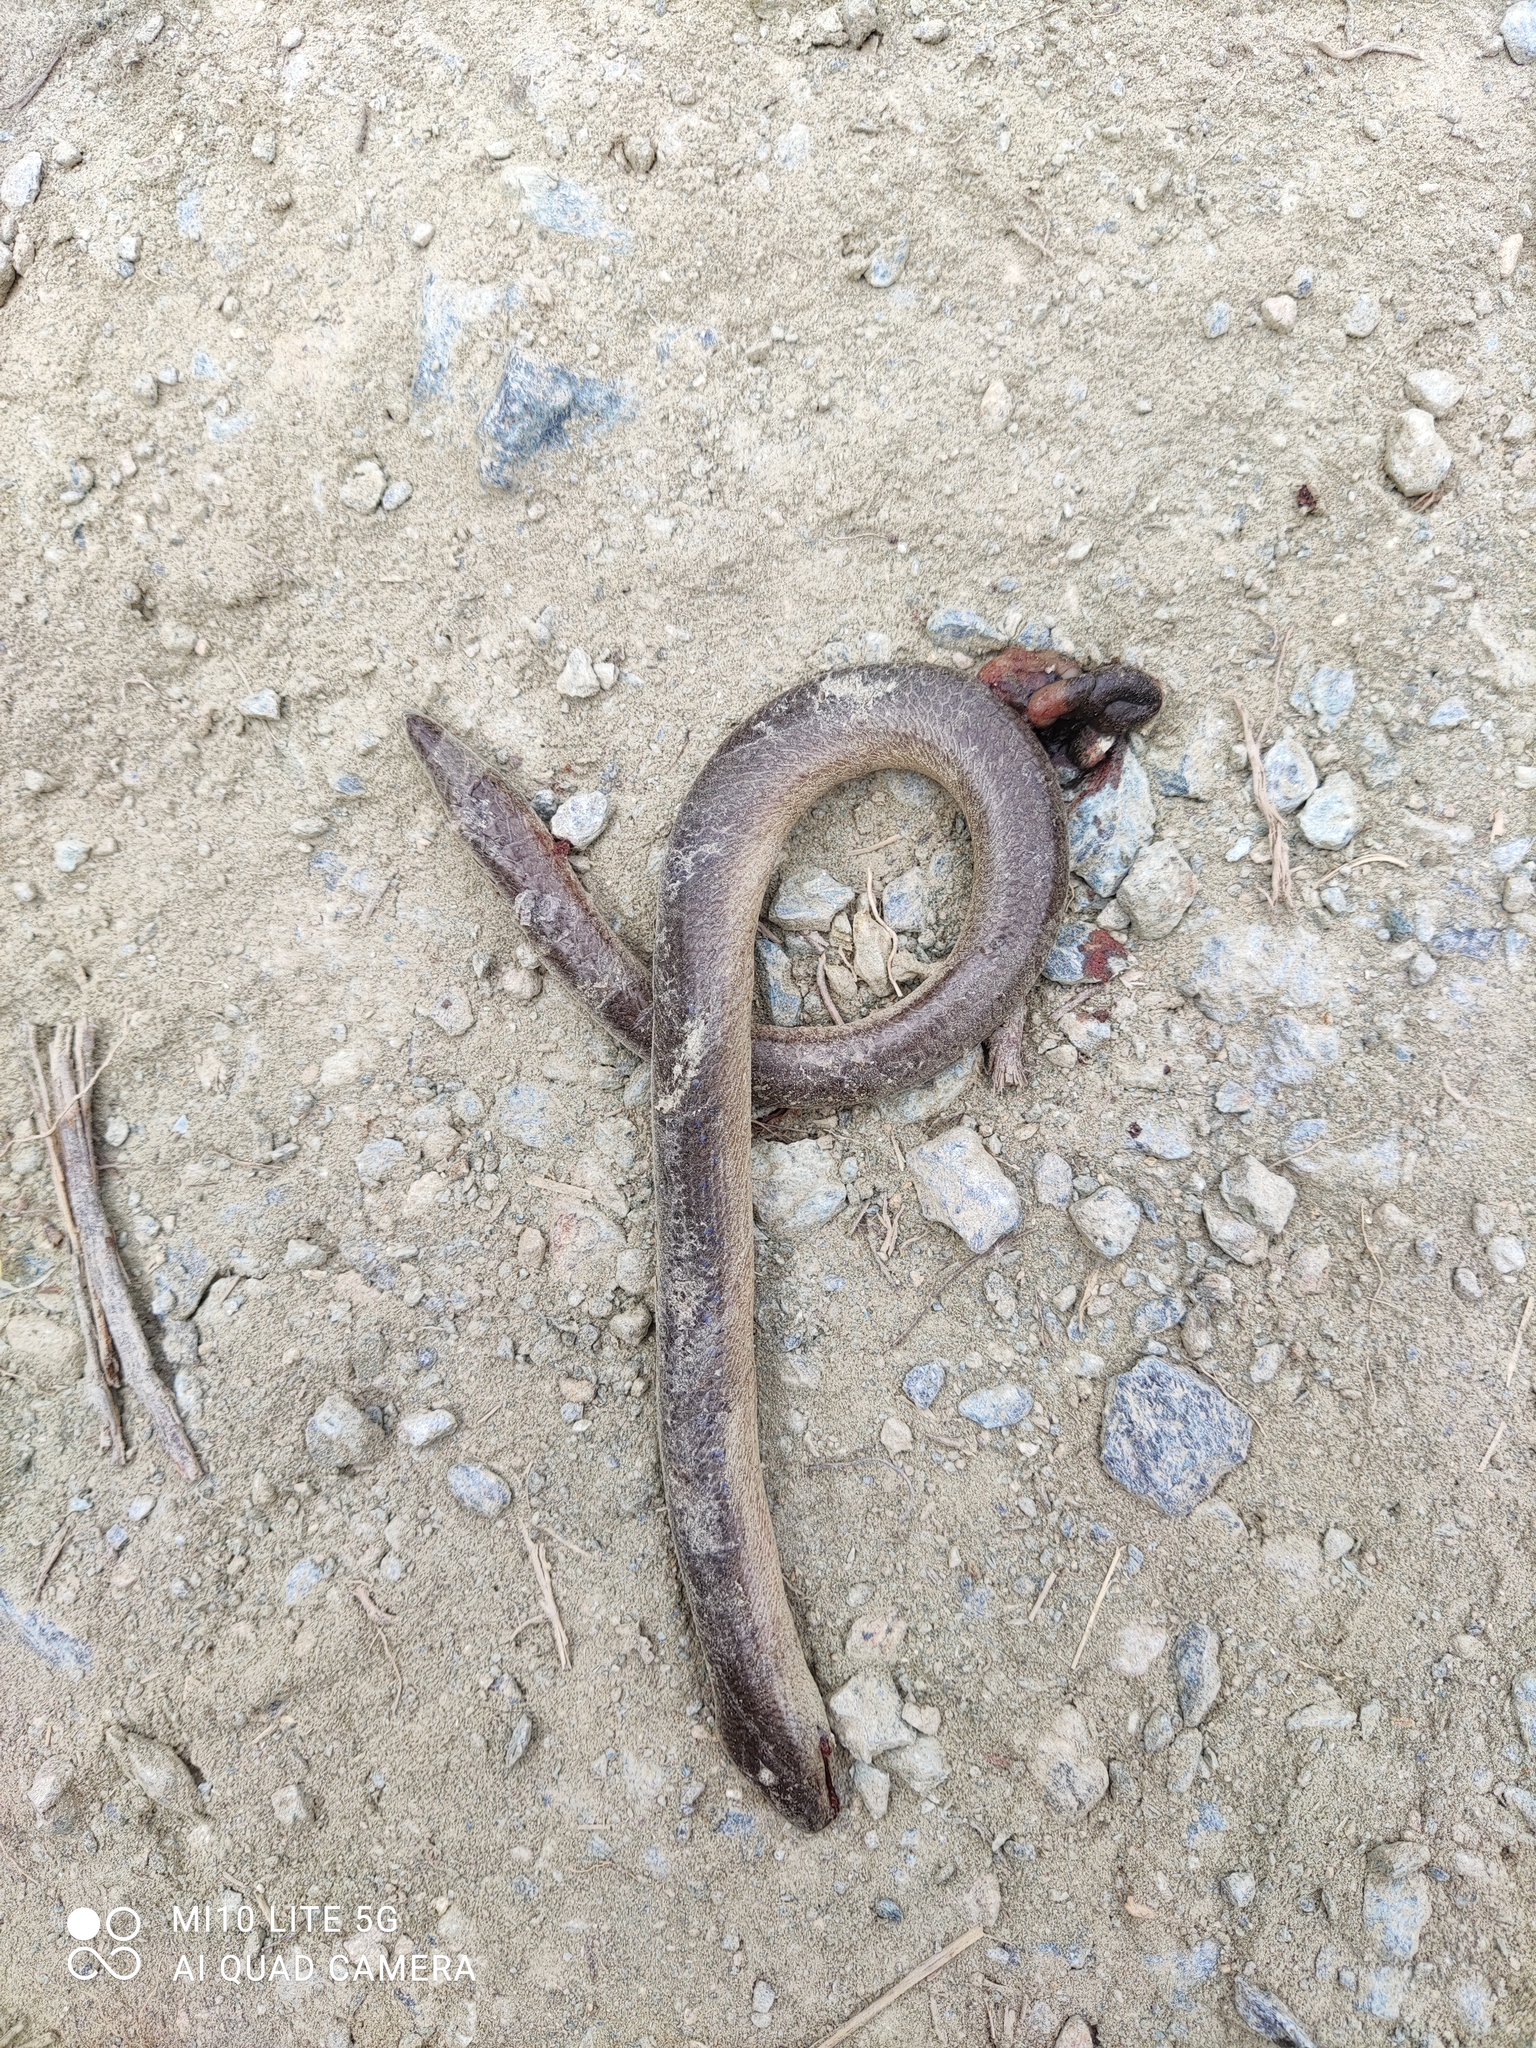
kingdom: Animalia
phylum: Chordata
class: Squamata
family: Anguidae
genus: Anguis
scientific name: Anguis veronensis
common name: Italian slow worm
